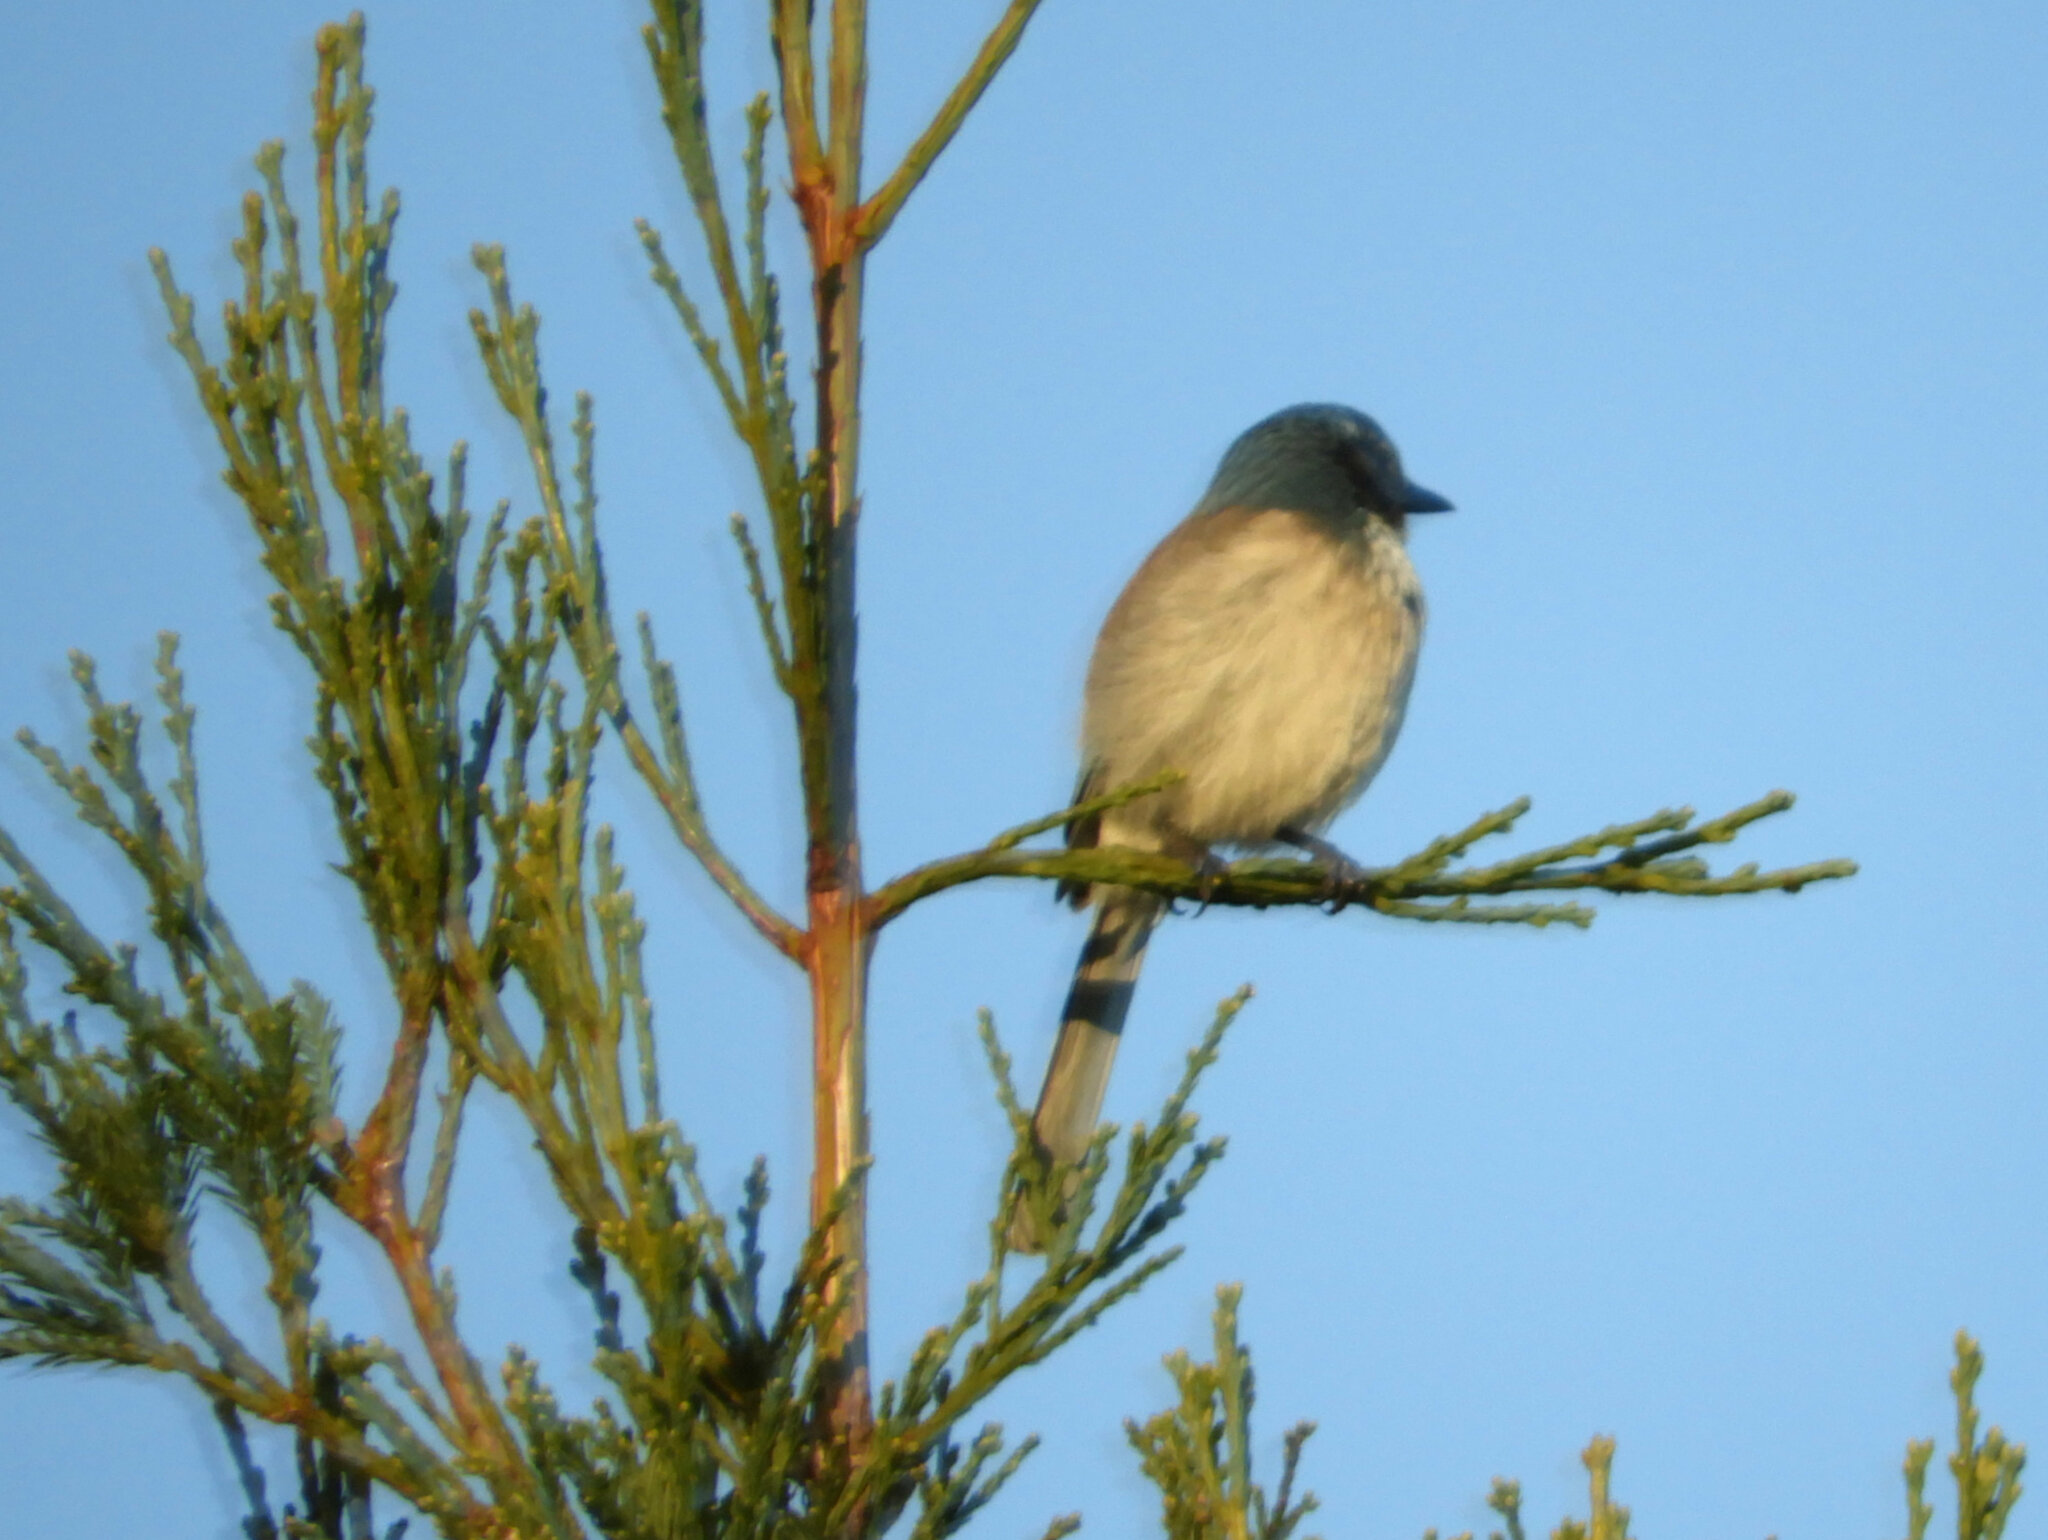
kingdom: Animalia
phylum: Chordata
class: Aves
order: Passeriformes
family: Corvidae
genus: Aphelocoma
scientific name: Aphelocoma californica
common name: California scrub-jay
